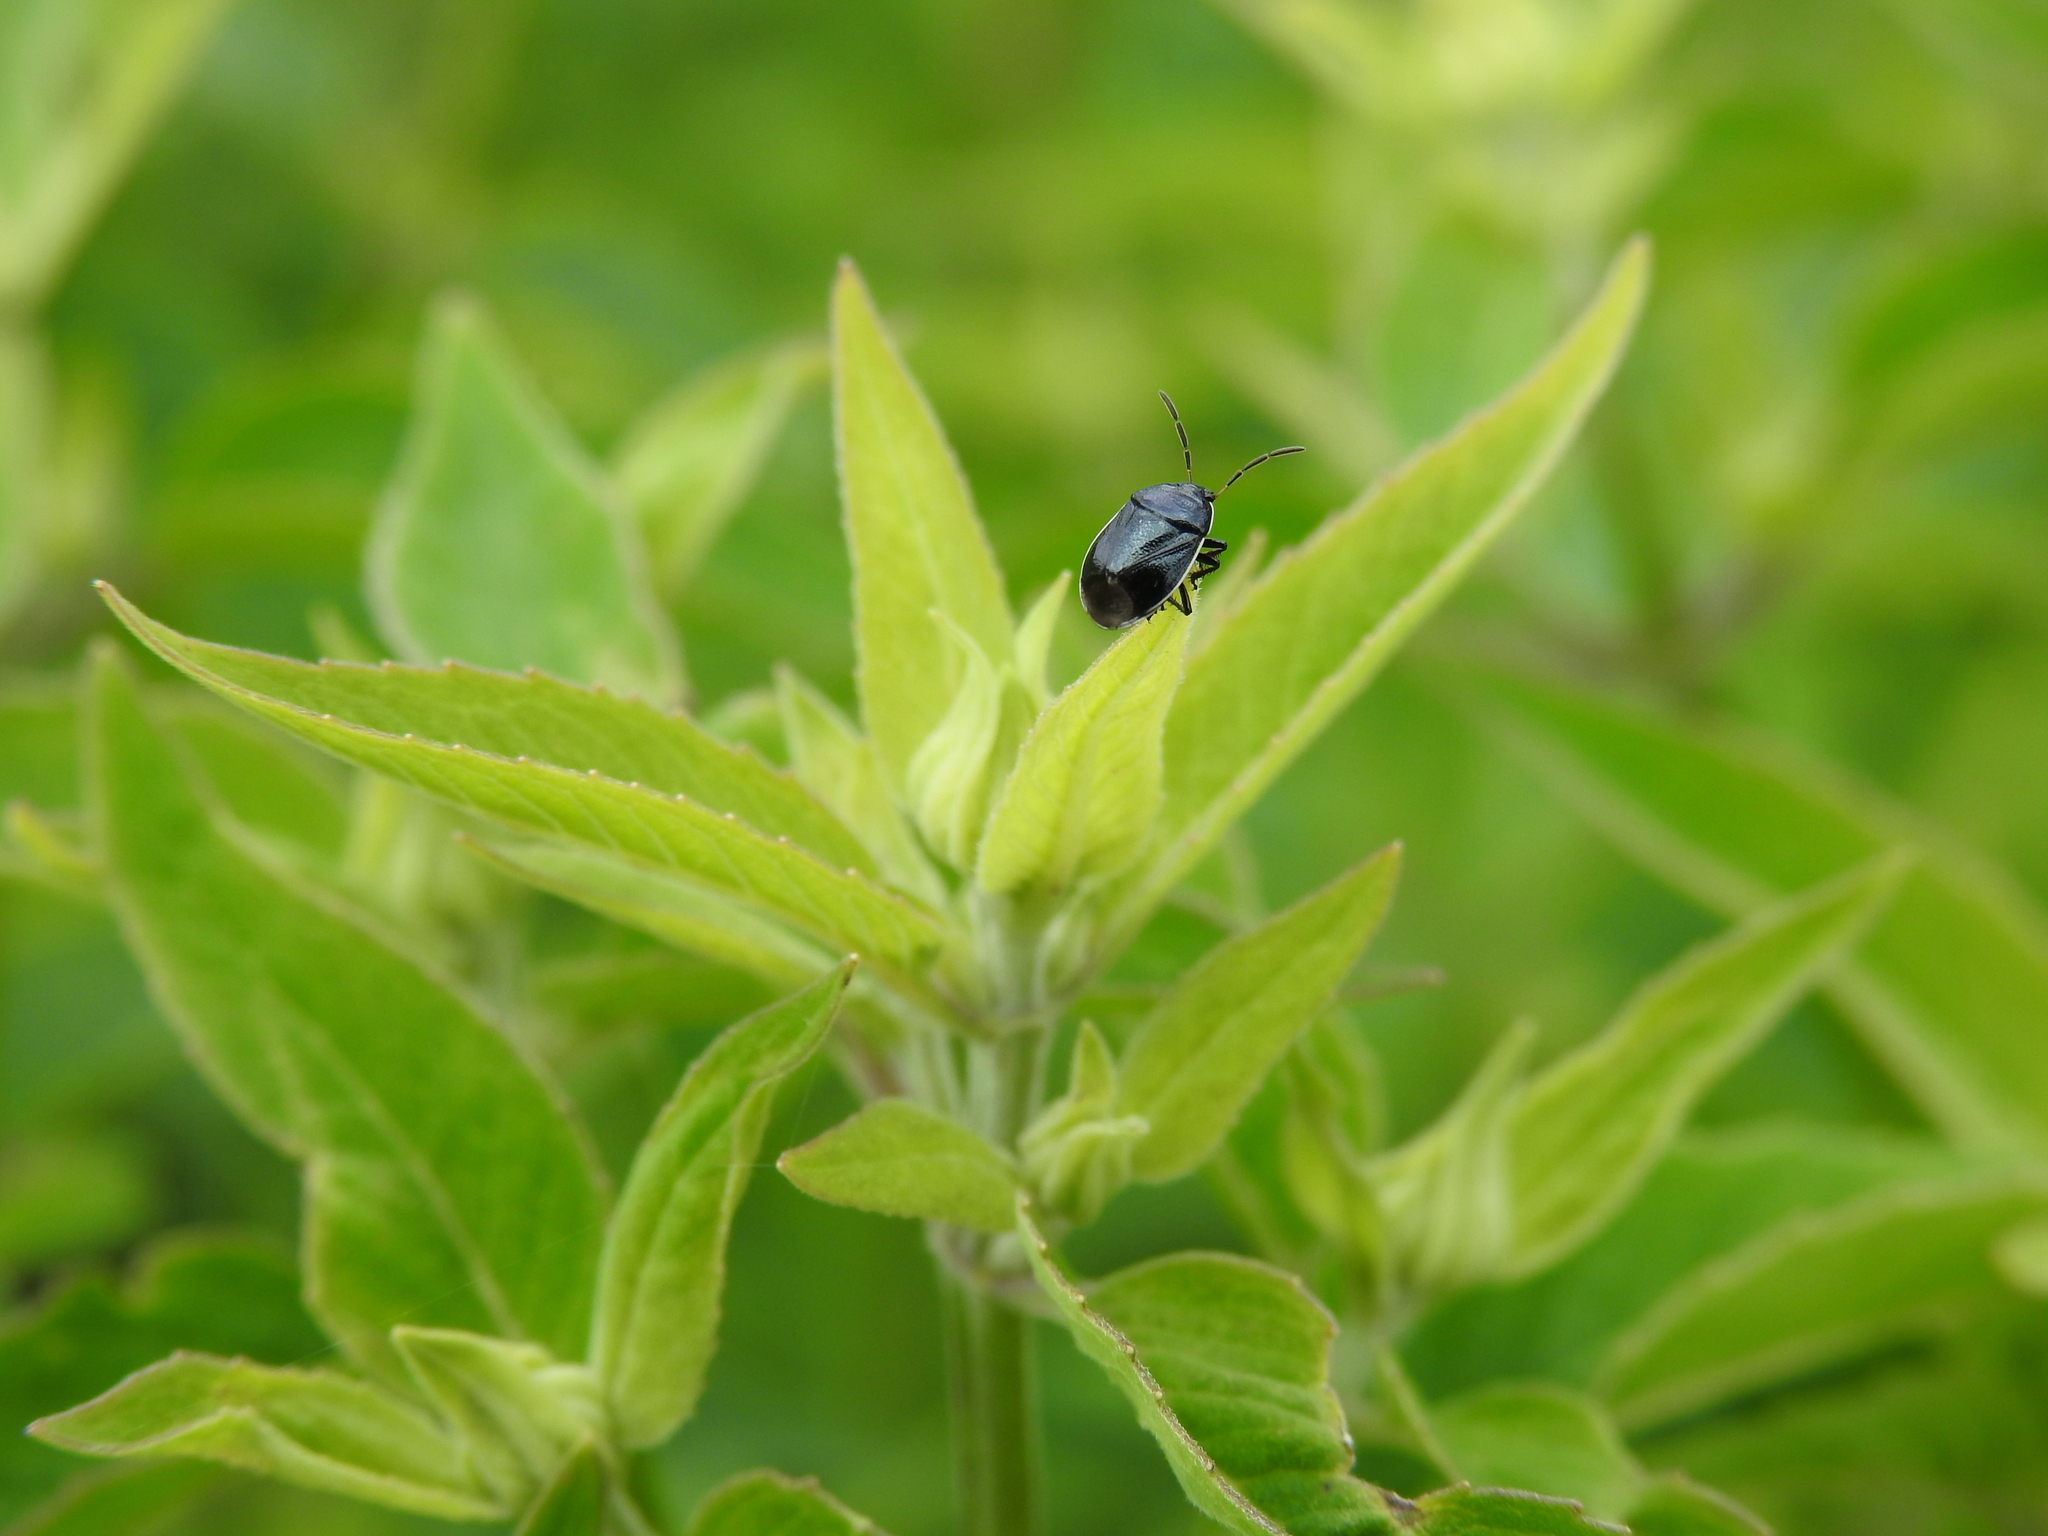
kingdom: Animalia
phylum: Arthropoda
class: Insecta
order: Hemiptera
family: Cydnidae
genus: Sehirus
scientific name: Sehirus cinctus
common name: White-margined burrower bug
